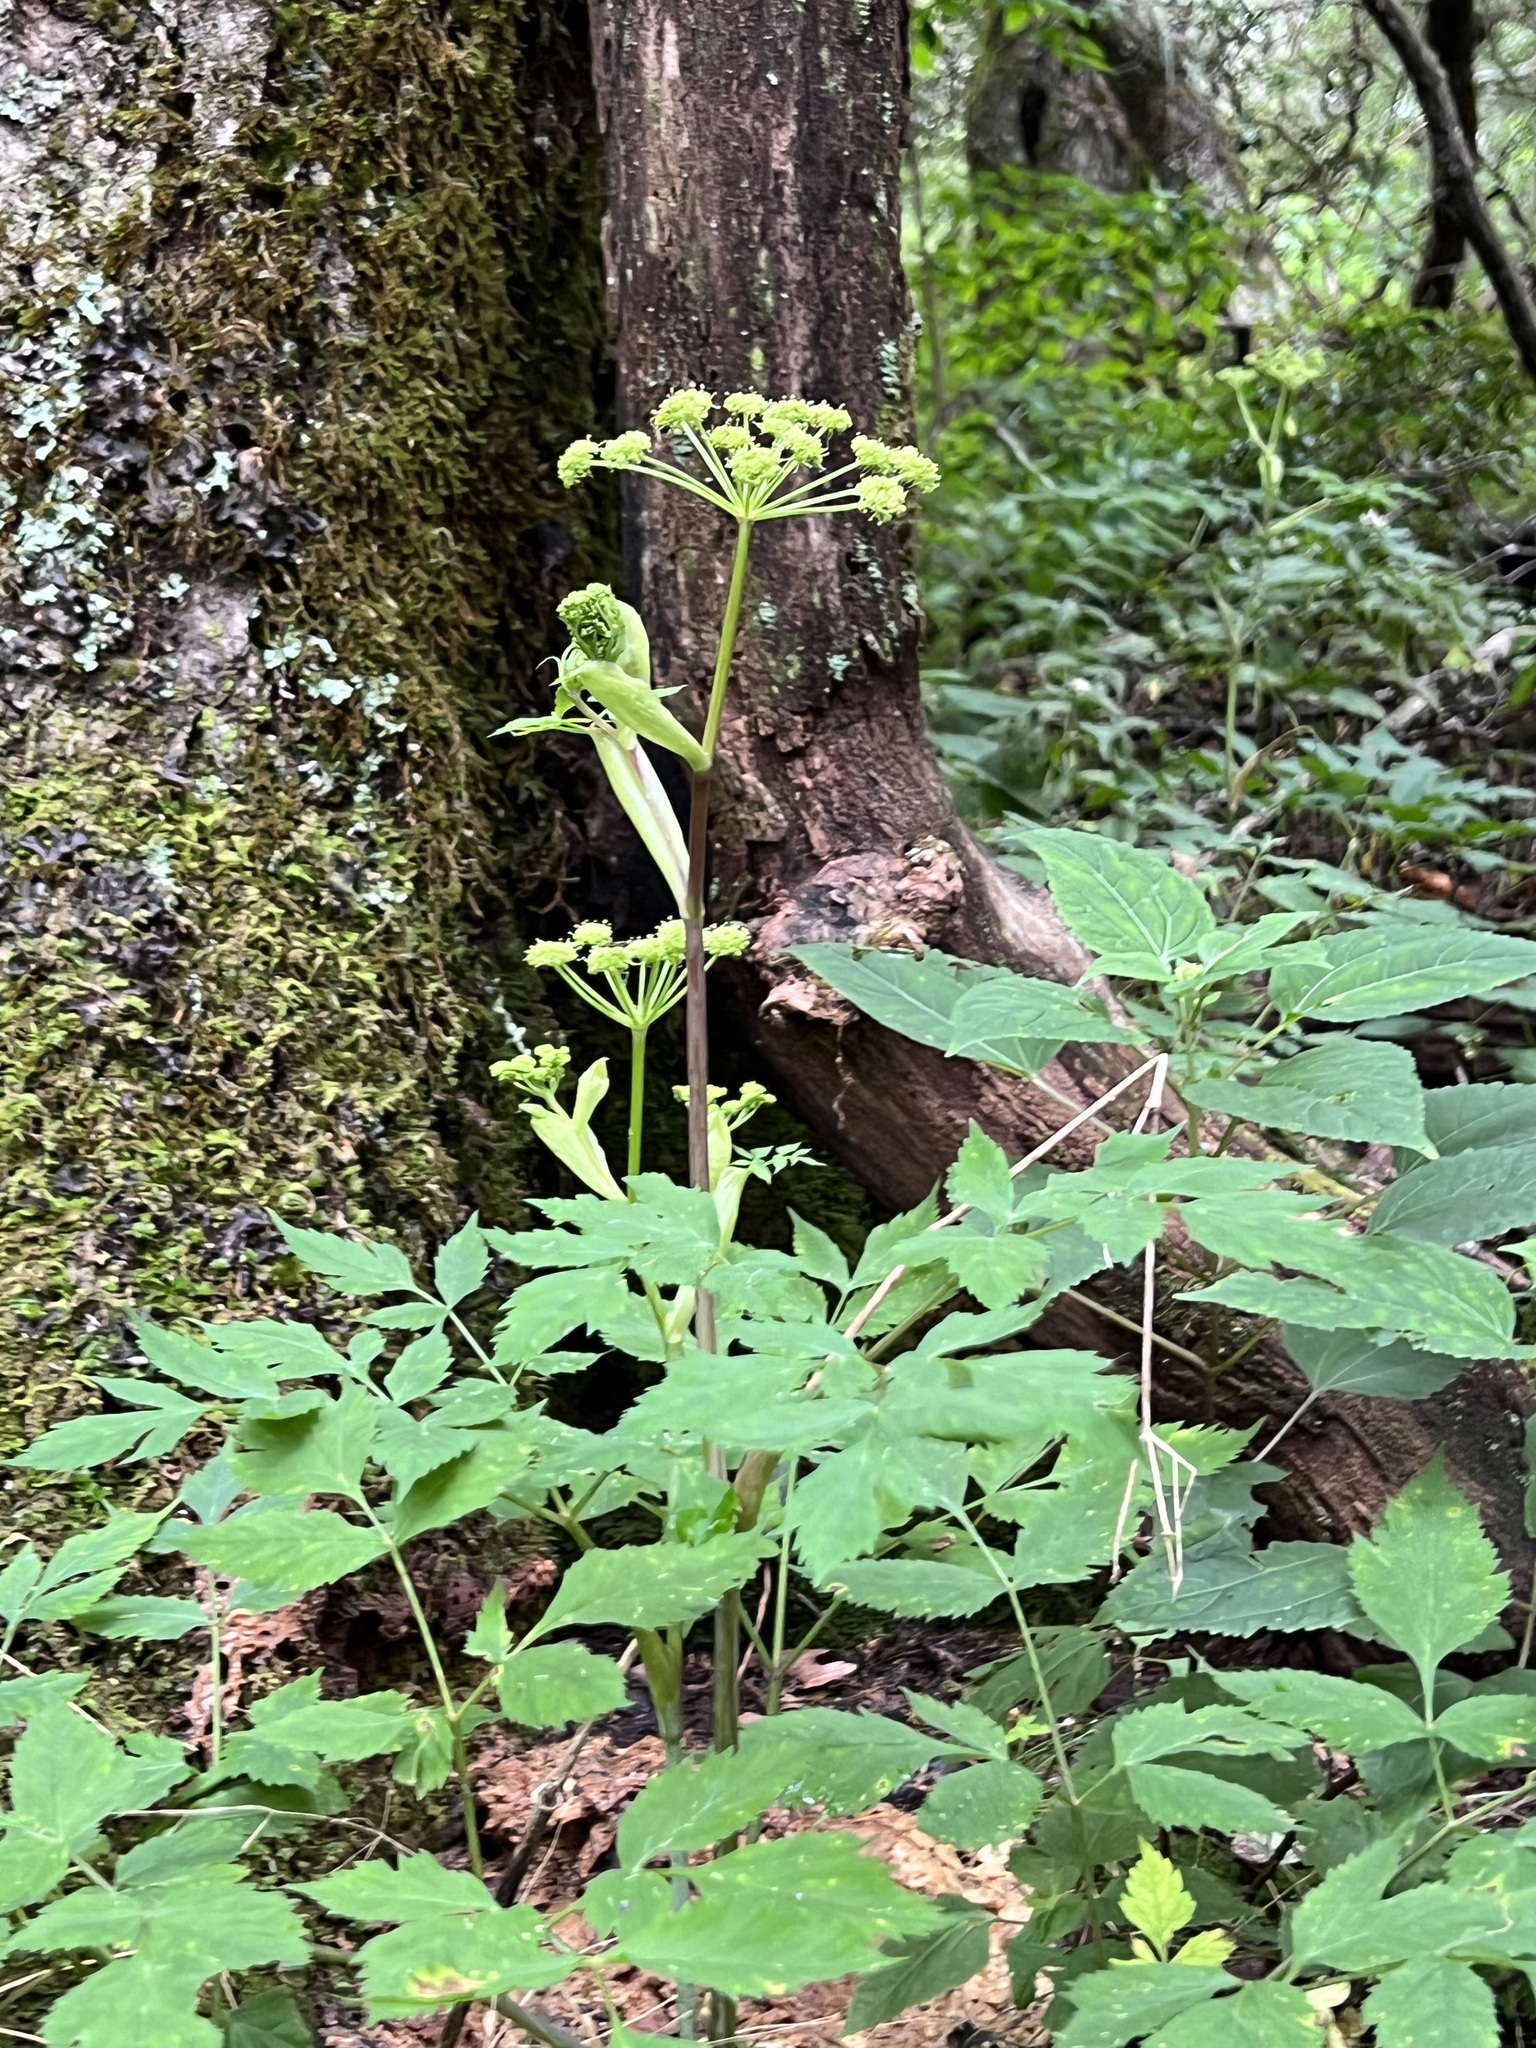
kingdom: Plantae
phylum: Tracheophyta
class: Magnoliopsida
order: Apiales
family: Apiaceae
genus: Angelica
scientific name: Angelica triquinata
